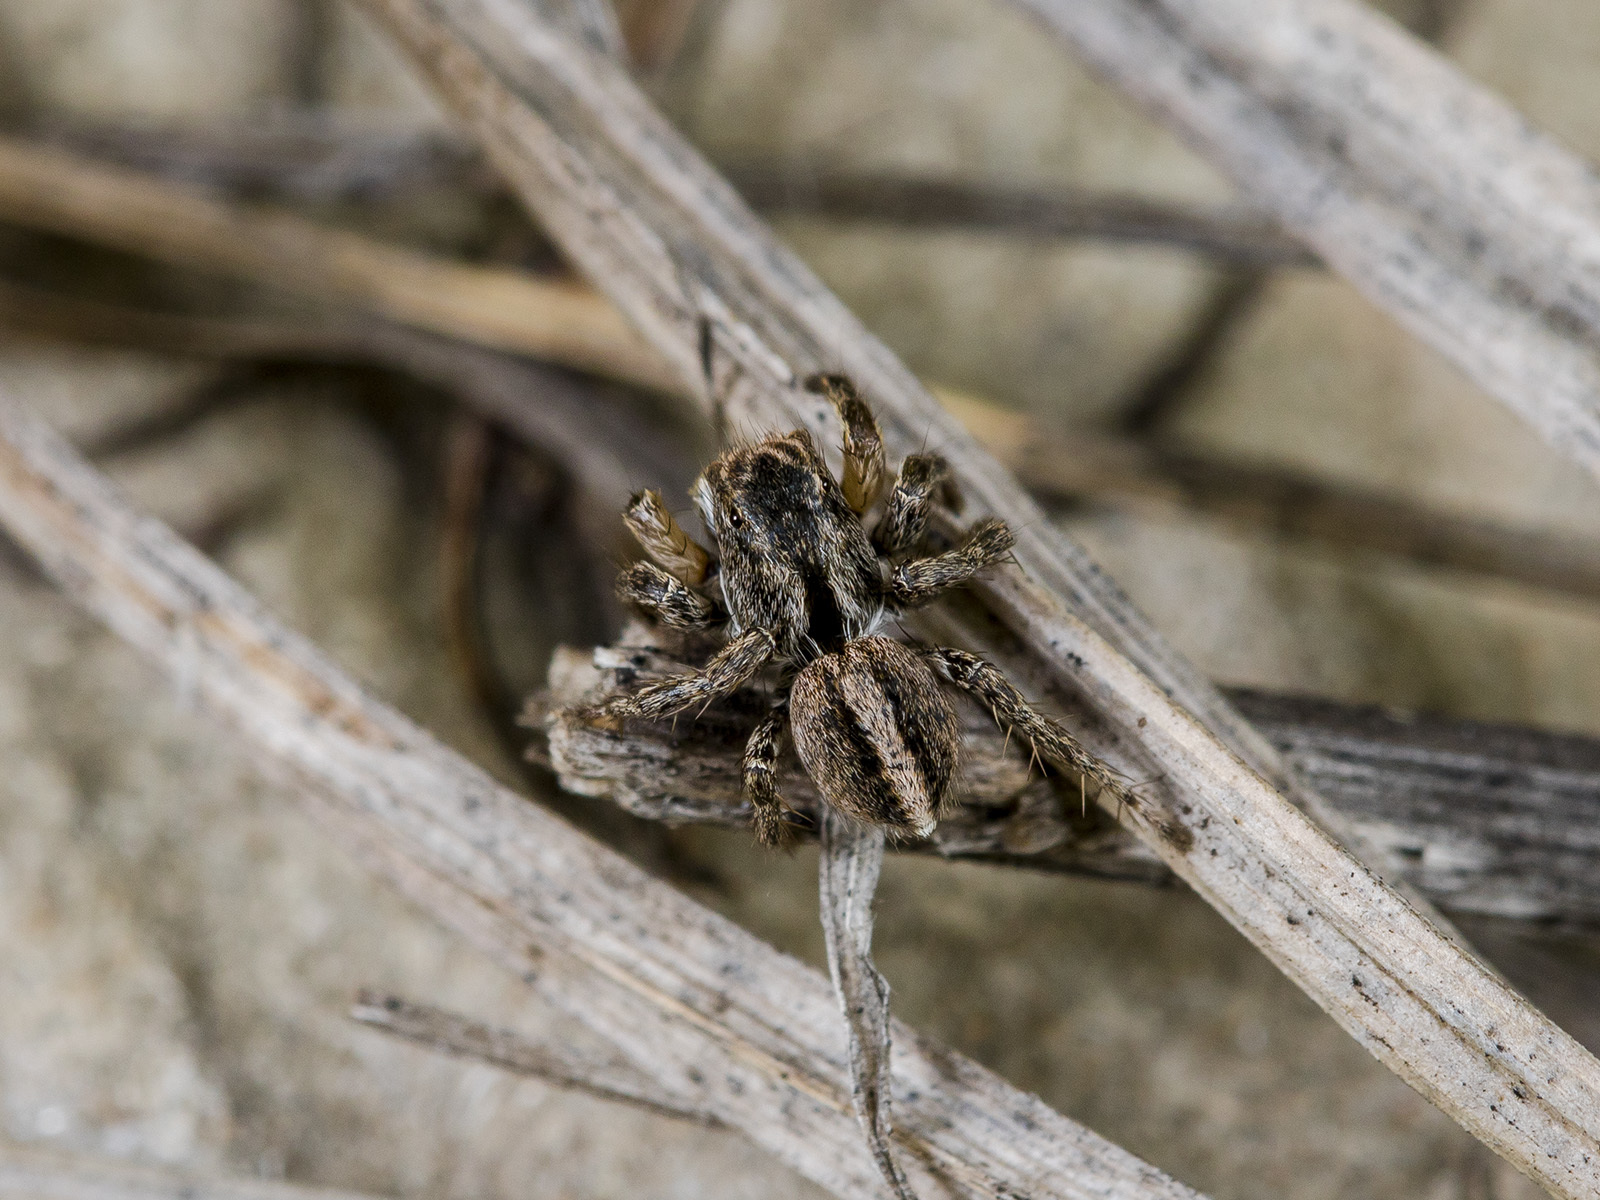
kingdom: Animalia
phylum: Arthropoda
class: Arachnida
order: Araneae
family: Salticidae
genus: Aelurillus
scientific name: Aelurillus v-insignitus
